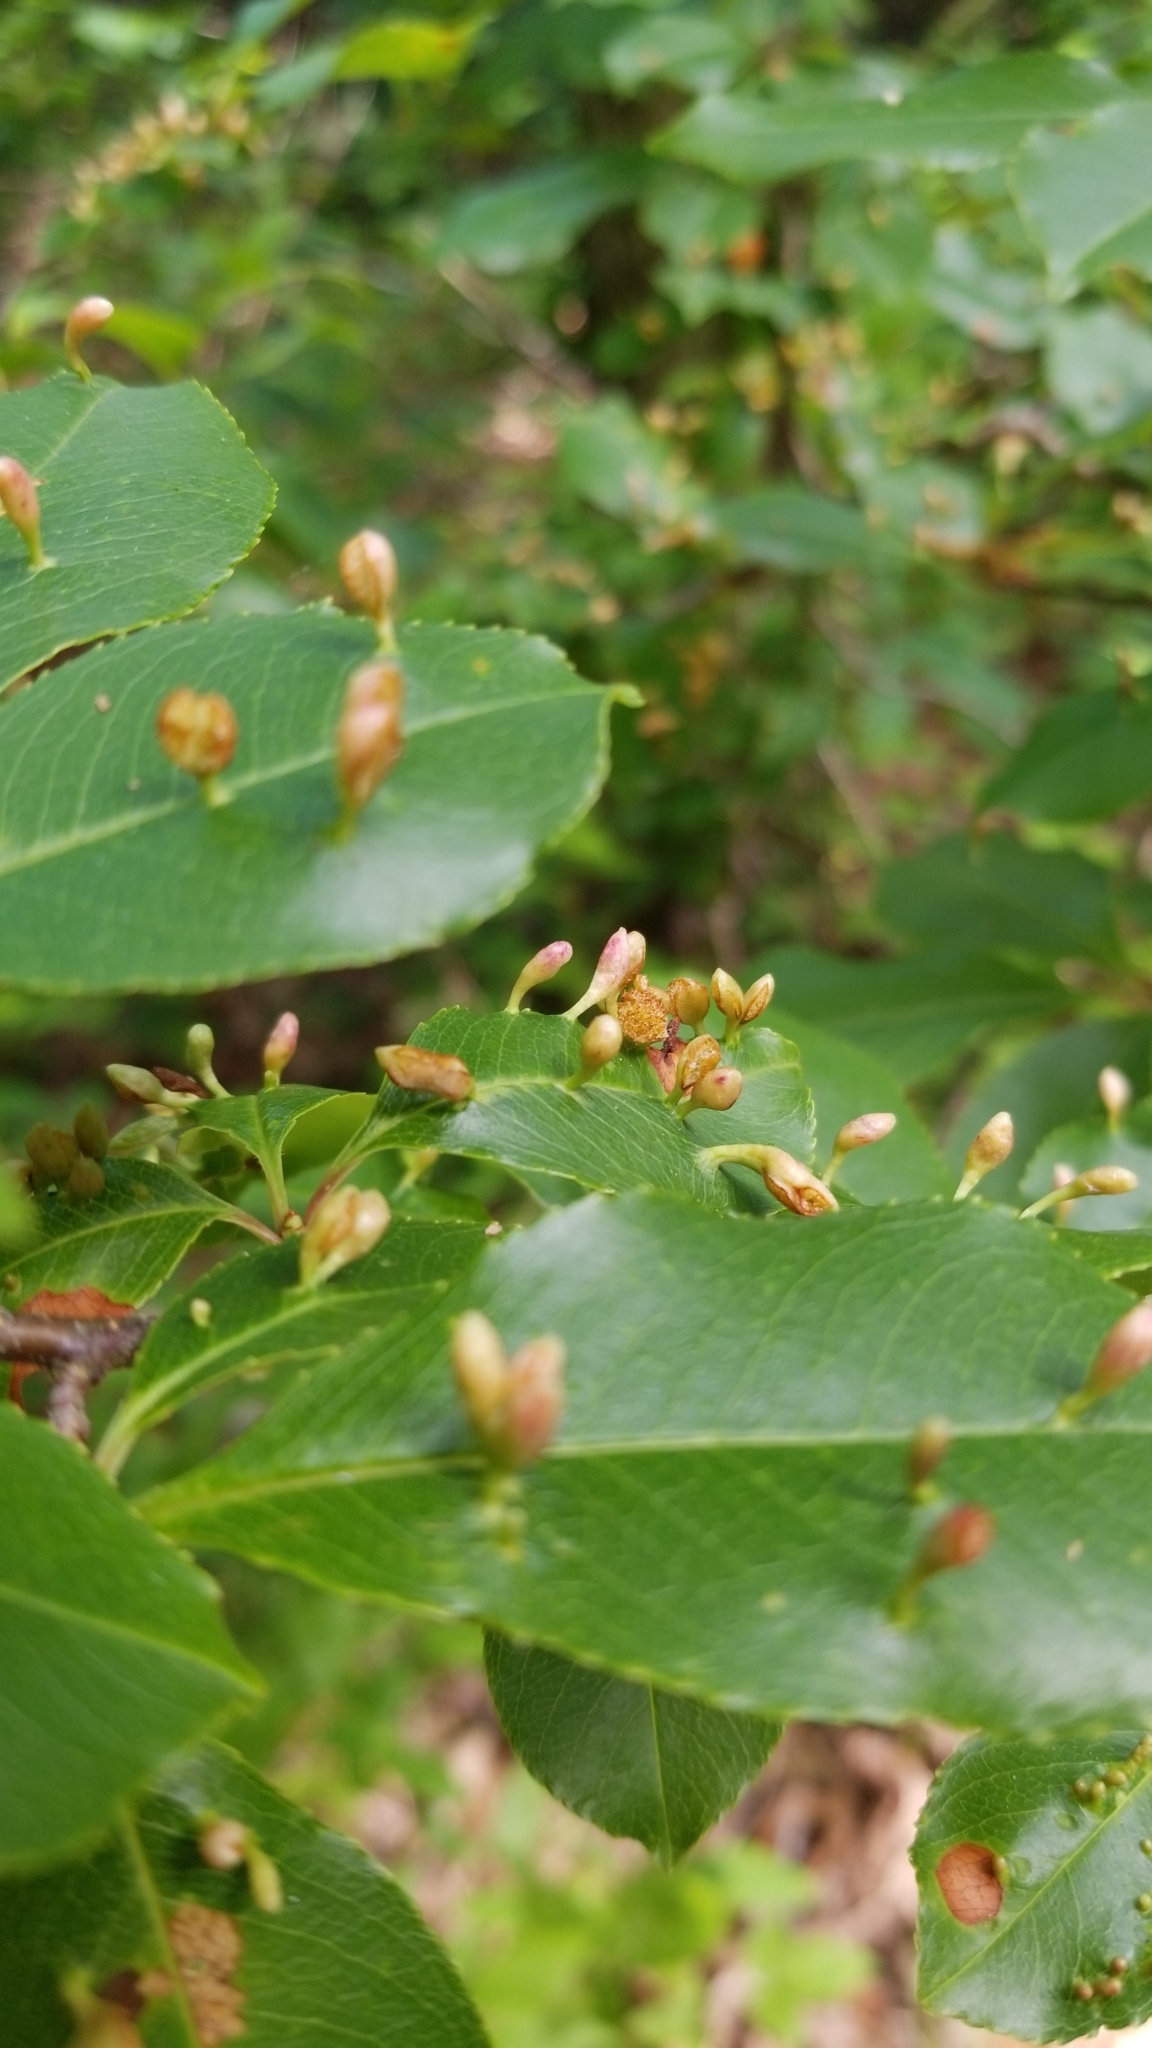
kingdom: Animalia
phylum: Arthropoda
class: Arachnida
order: Trombidiformes
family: Eriophyidae
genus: Eriophyes
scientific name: Eriophyes
